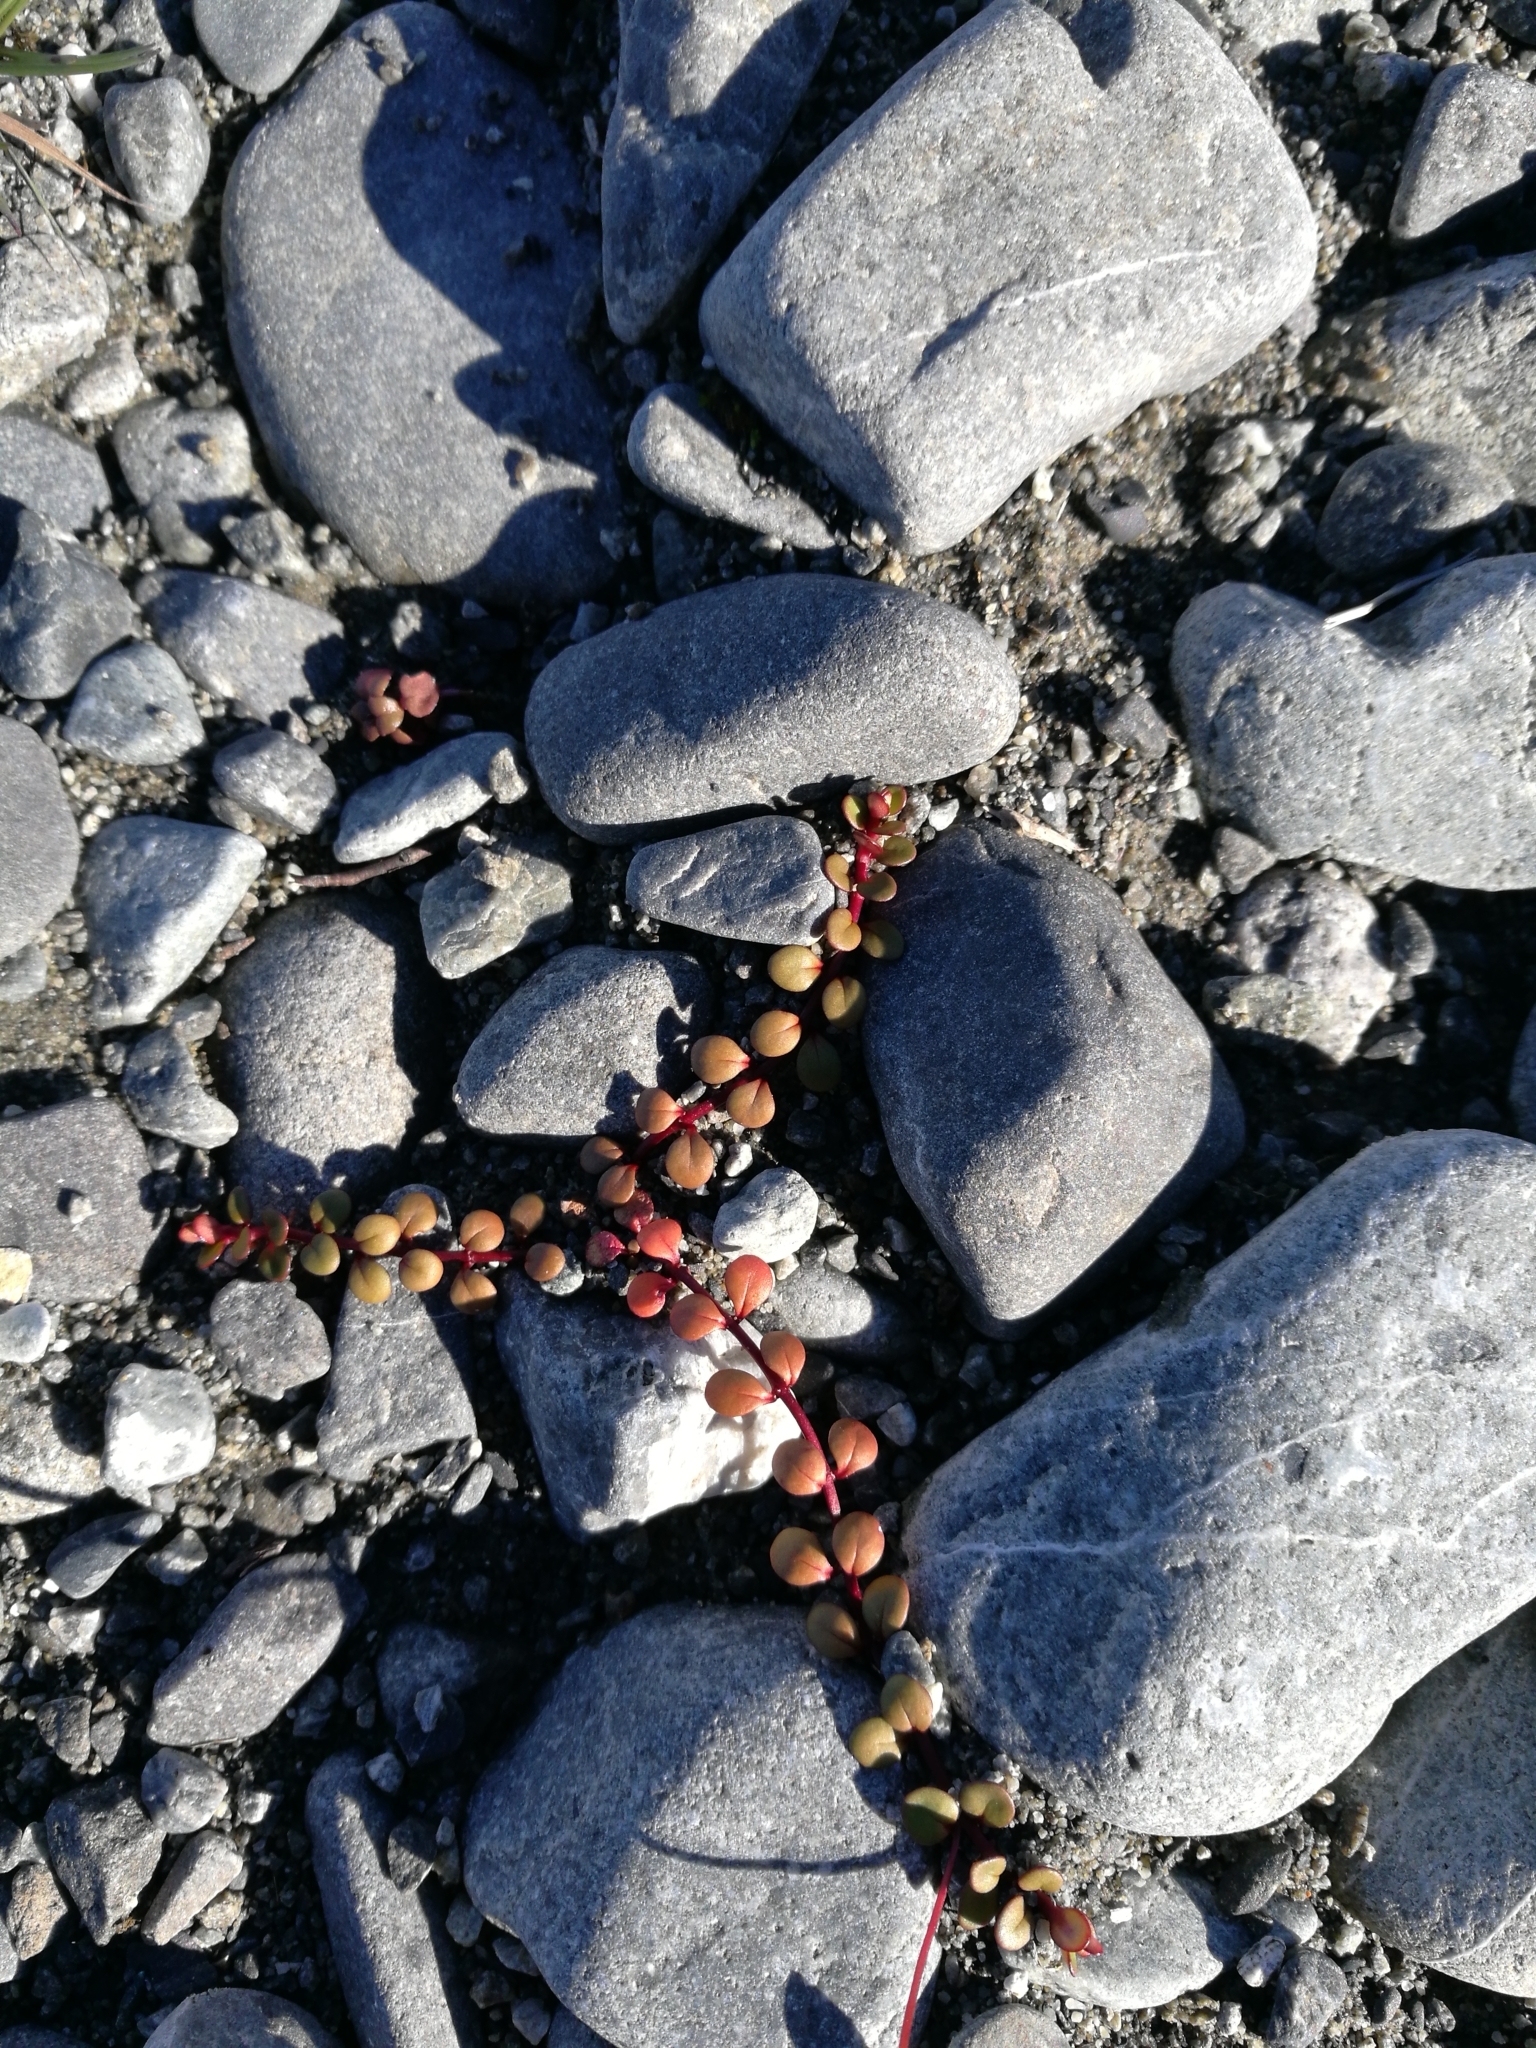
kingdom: Plantae
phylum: Tracheophyta
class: Magnoliopsida
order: Myrtales
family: Onagraceae
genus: Epilobium
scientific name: Epilobium brunnescens
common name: New zealand willowherb
